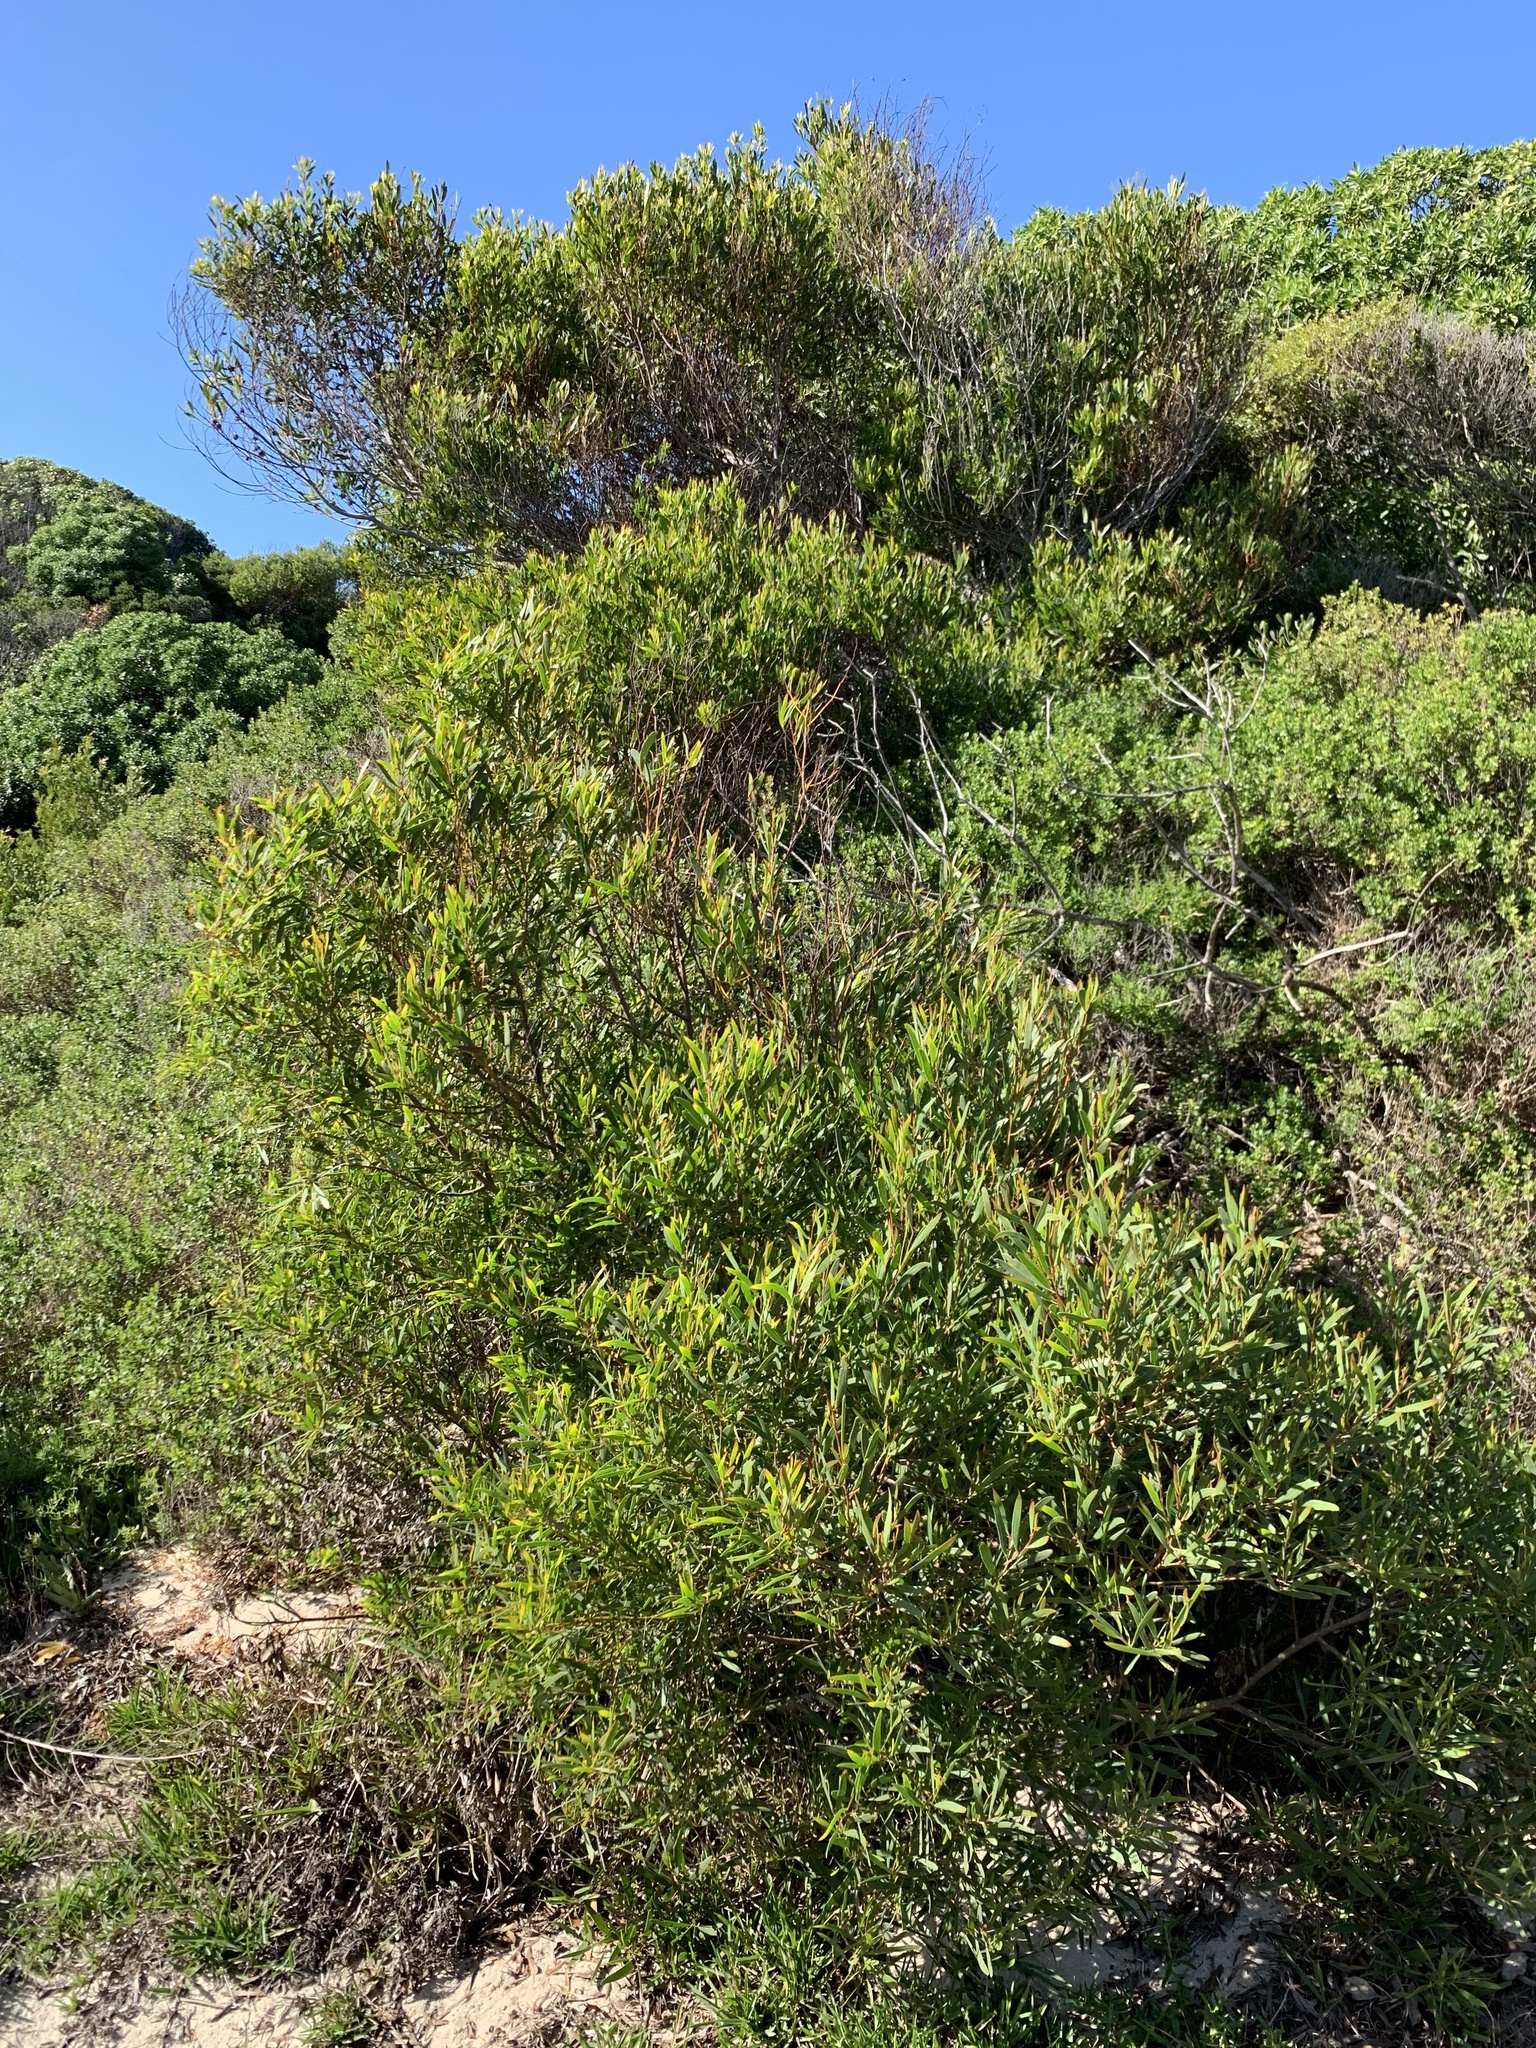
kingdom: Plantae
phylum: Tracheophyta
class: Magnoliopsida
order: Fabales
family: Fabaceae
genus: Acacia
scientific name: Acacia cyclops
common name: Coastal wattle
